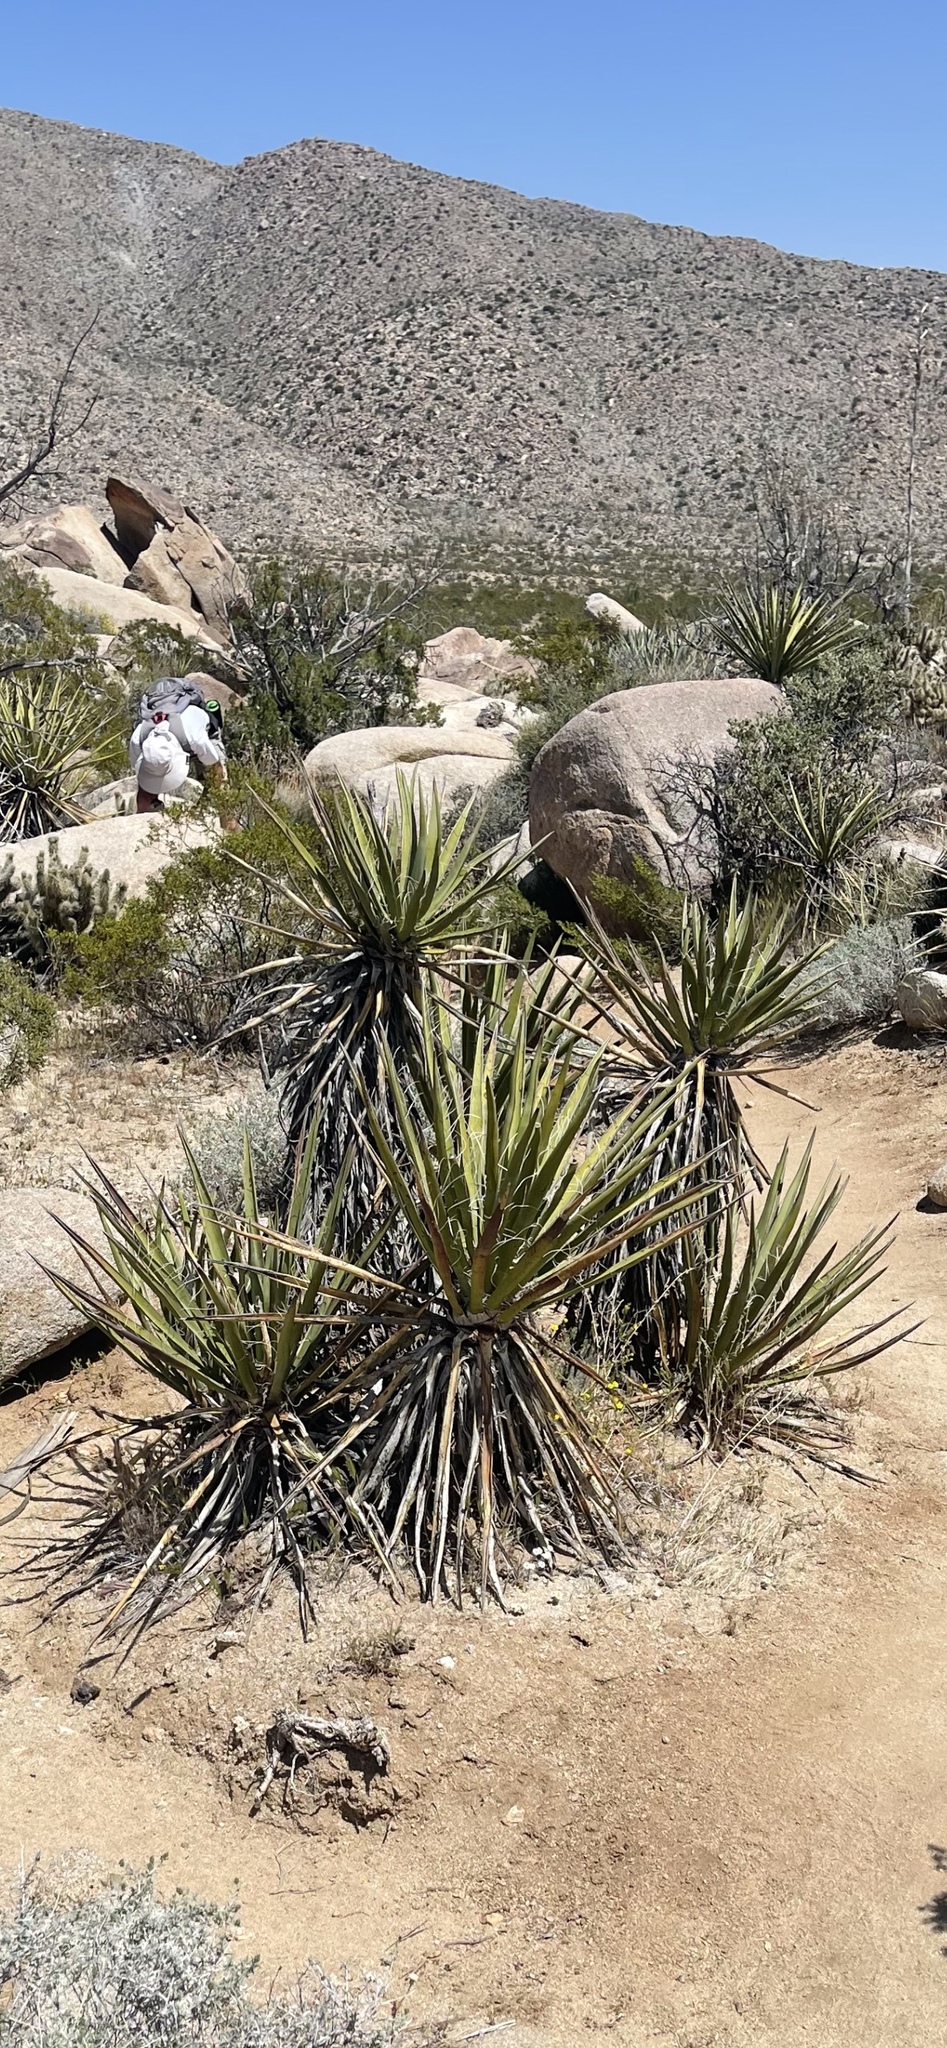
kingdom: Plantae
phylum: Tracheophyta
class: Liliopsida
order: Asparagales
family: Asparagaceae
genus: Yucca
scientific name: Yucca schidigera
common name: Mojave yucca
